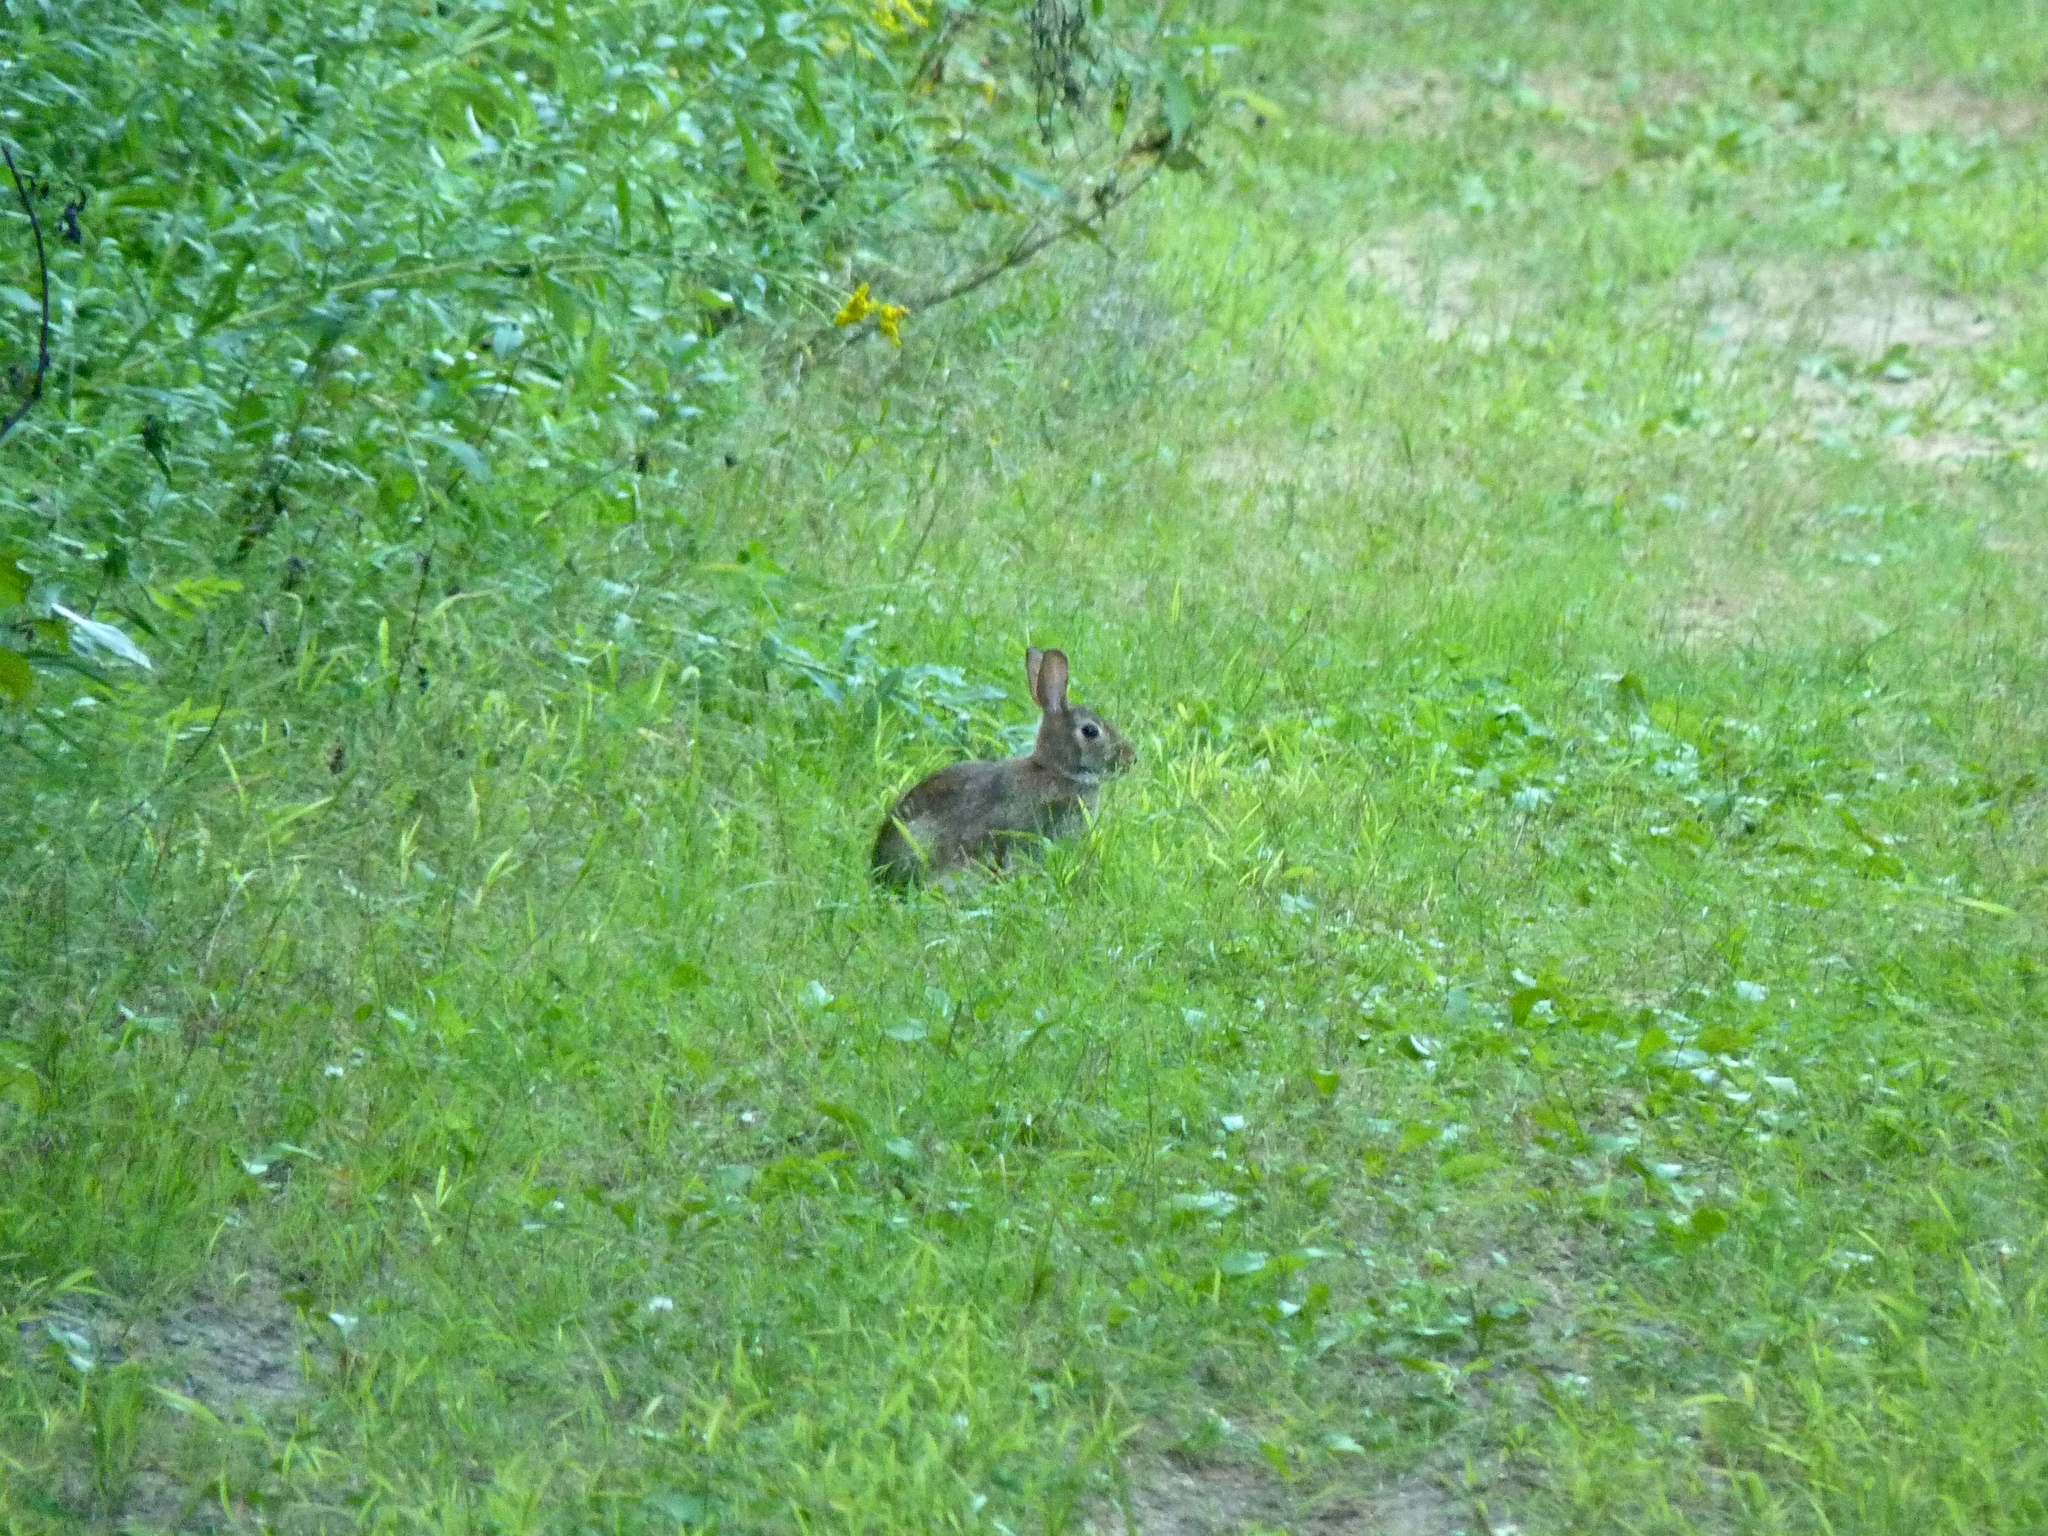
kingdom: Animalia
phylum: Chordata
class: Mammalia
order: Lagomorpha
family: Leporidae
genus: Sylvilagus
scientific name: Sylvilagus floridanus
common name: Eastern cottontail
